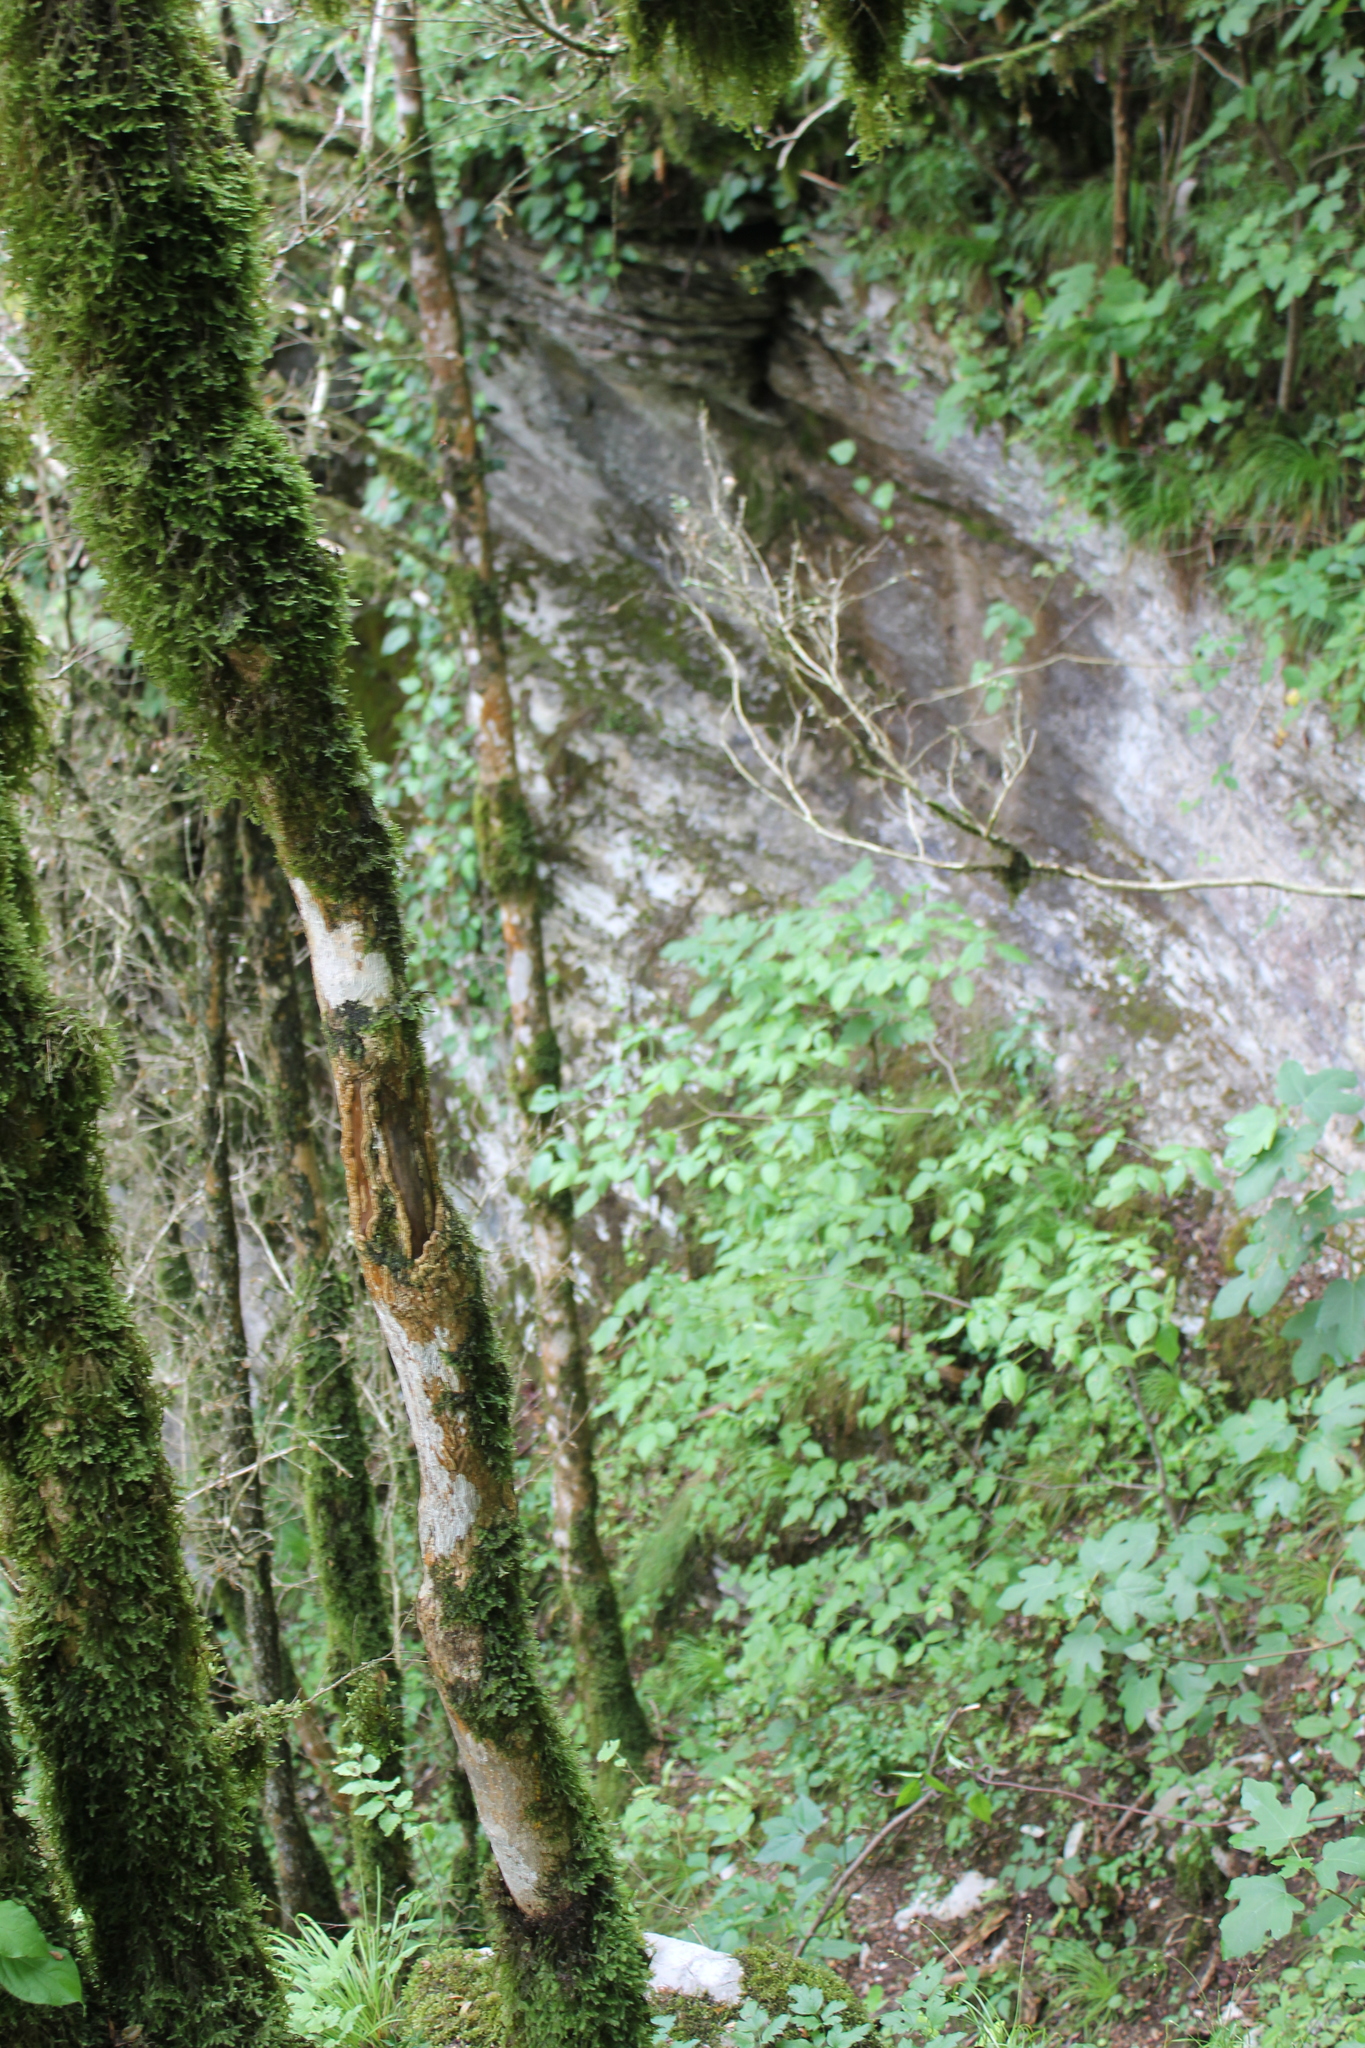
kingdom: Plantae
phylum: Tracheophyta
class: Magnoliopsida
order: Buxales
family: Buxaceae
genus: Buxus
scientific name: Buxus sempervirens
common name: Box
